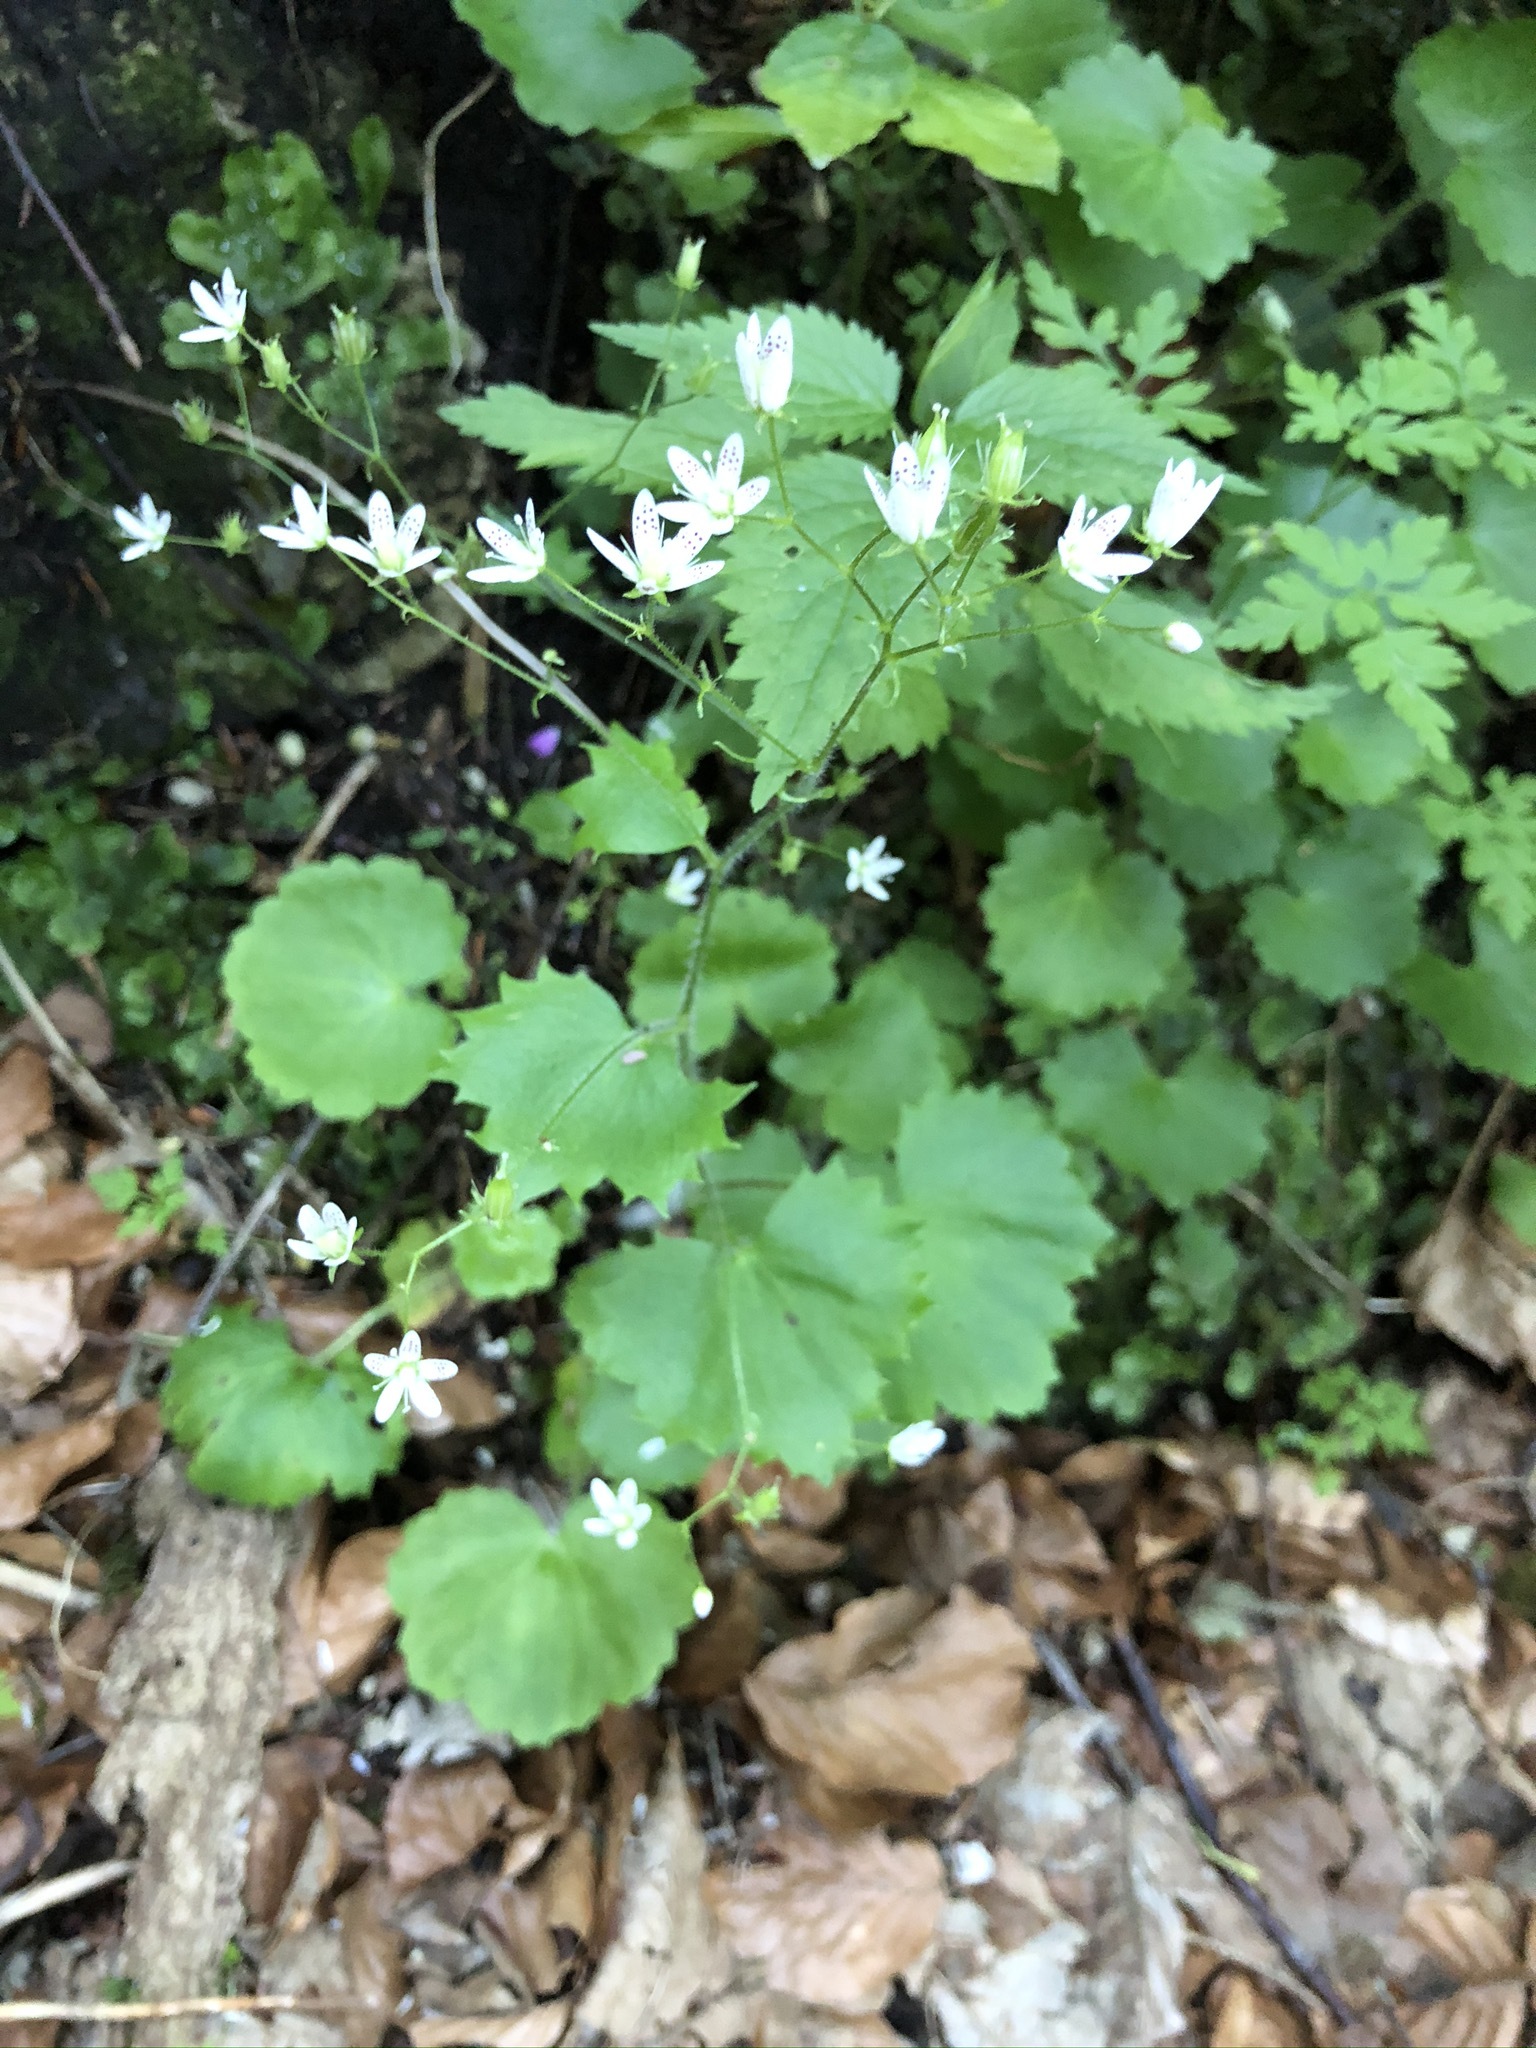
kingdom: Plantae
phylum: Tracheophyta
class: Magnoliopsida
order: Saxifragales
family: Saxifragaceae
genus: Saxifraga
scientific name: Saxifraga rotundifolia
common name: Round-leaved saxifrage
